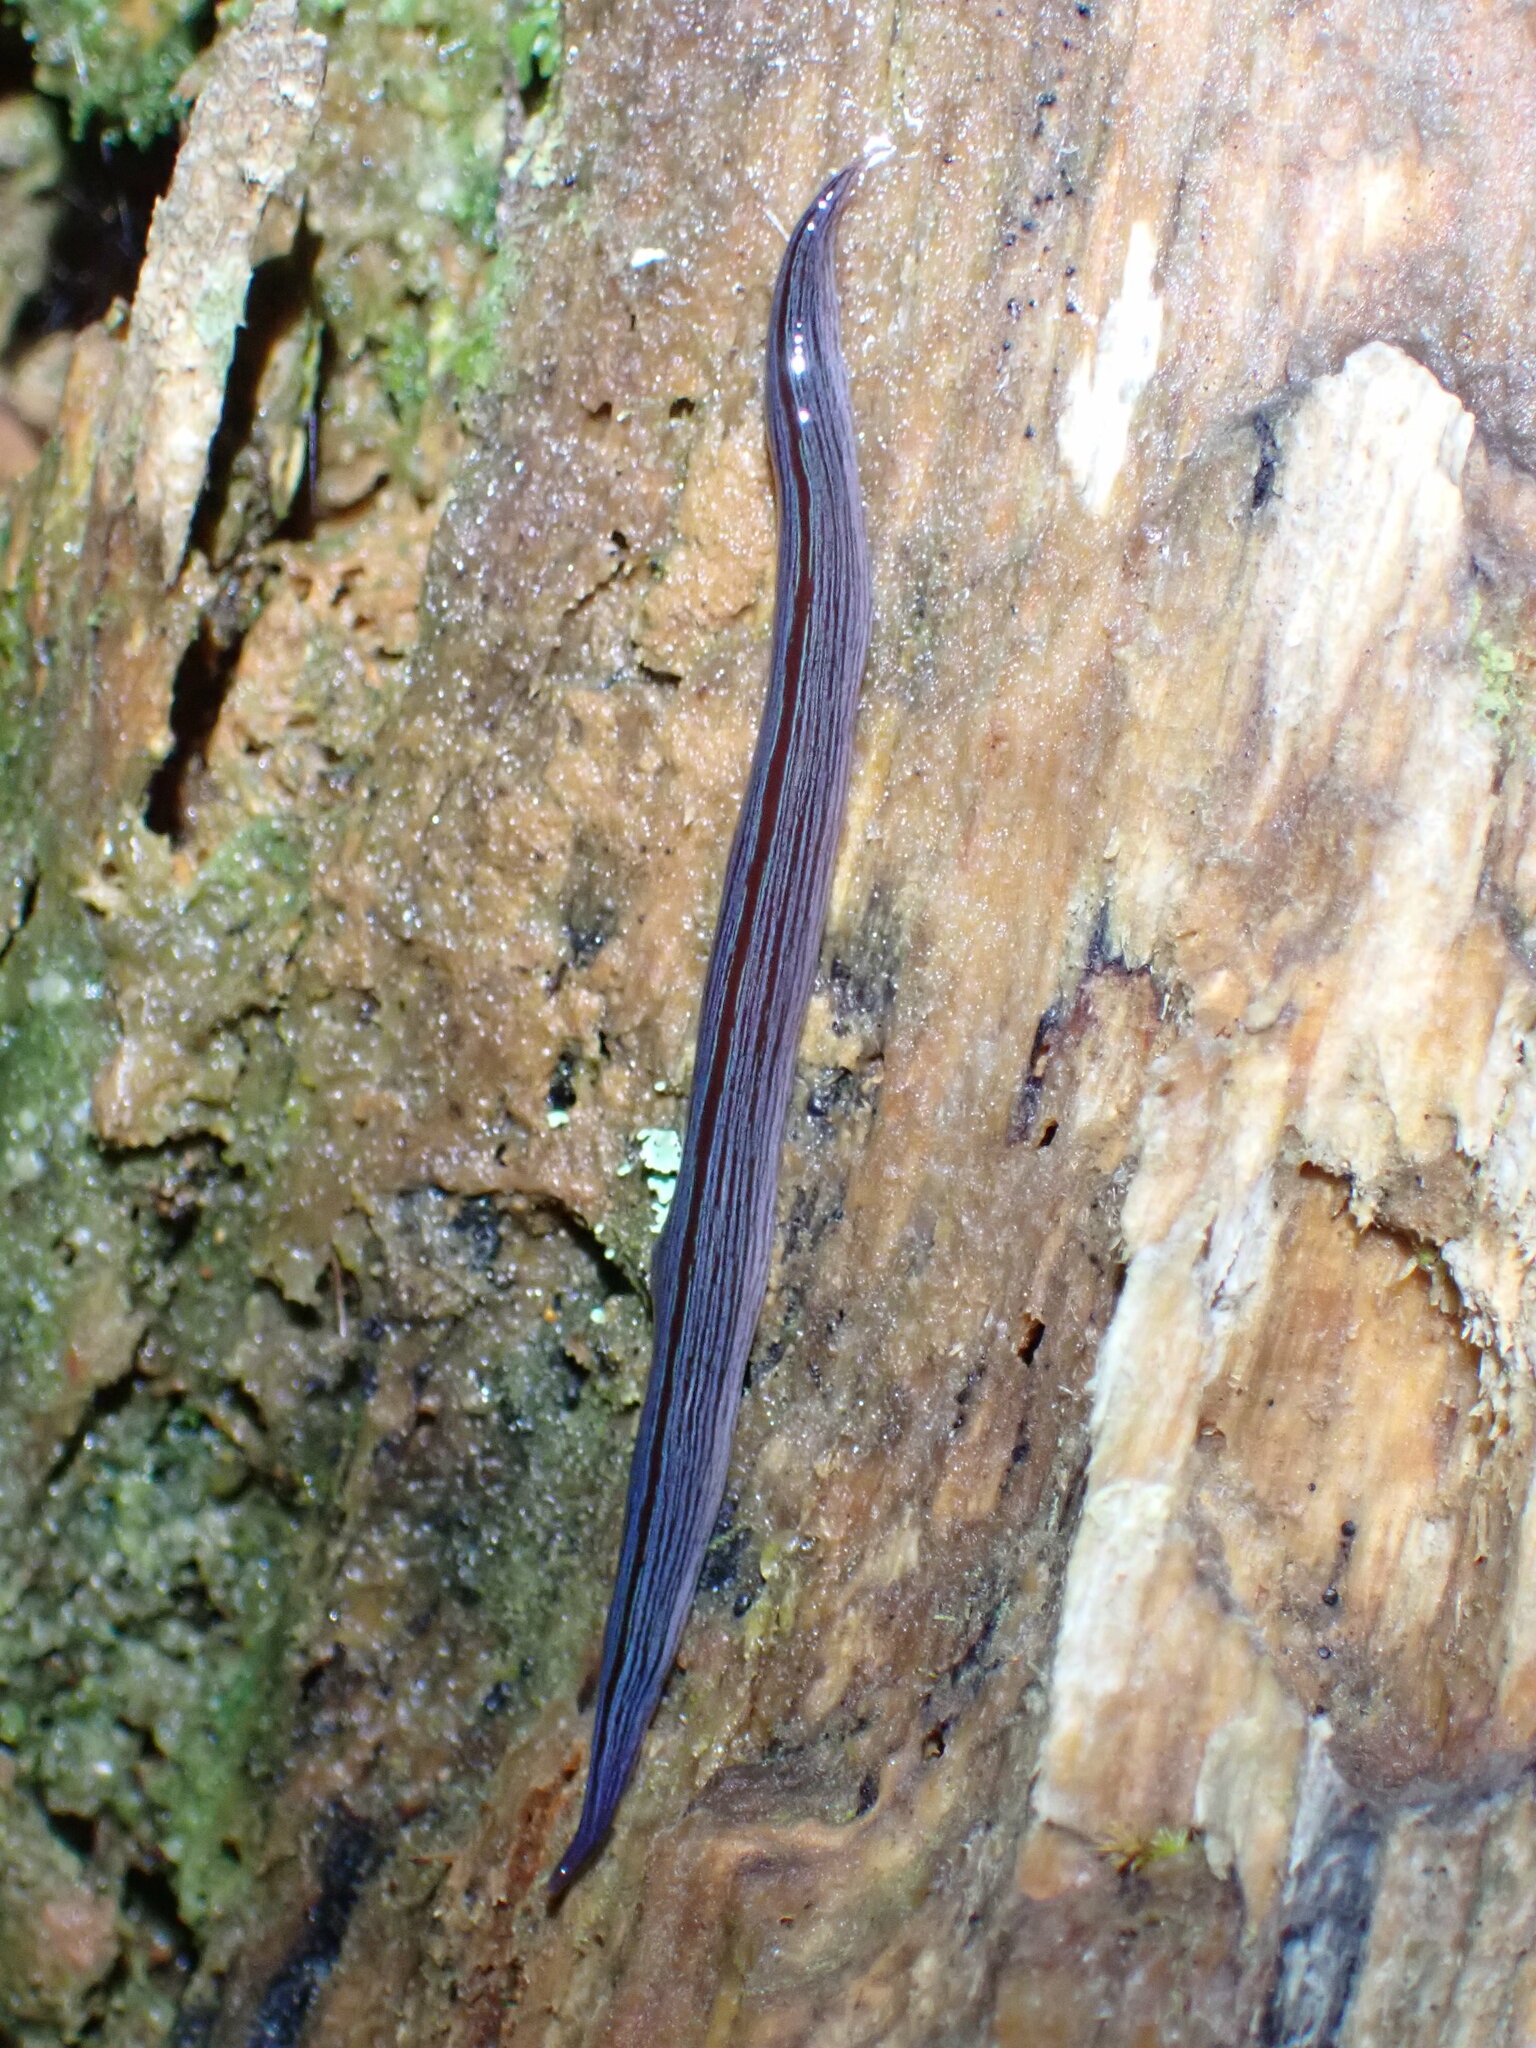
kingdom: Animalia
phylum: Platyhelminthes
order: Tricladida
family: Geoplanidae
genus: Newzealandia
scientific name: Newzealandia
